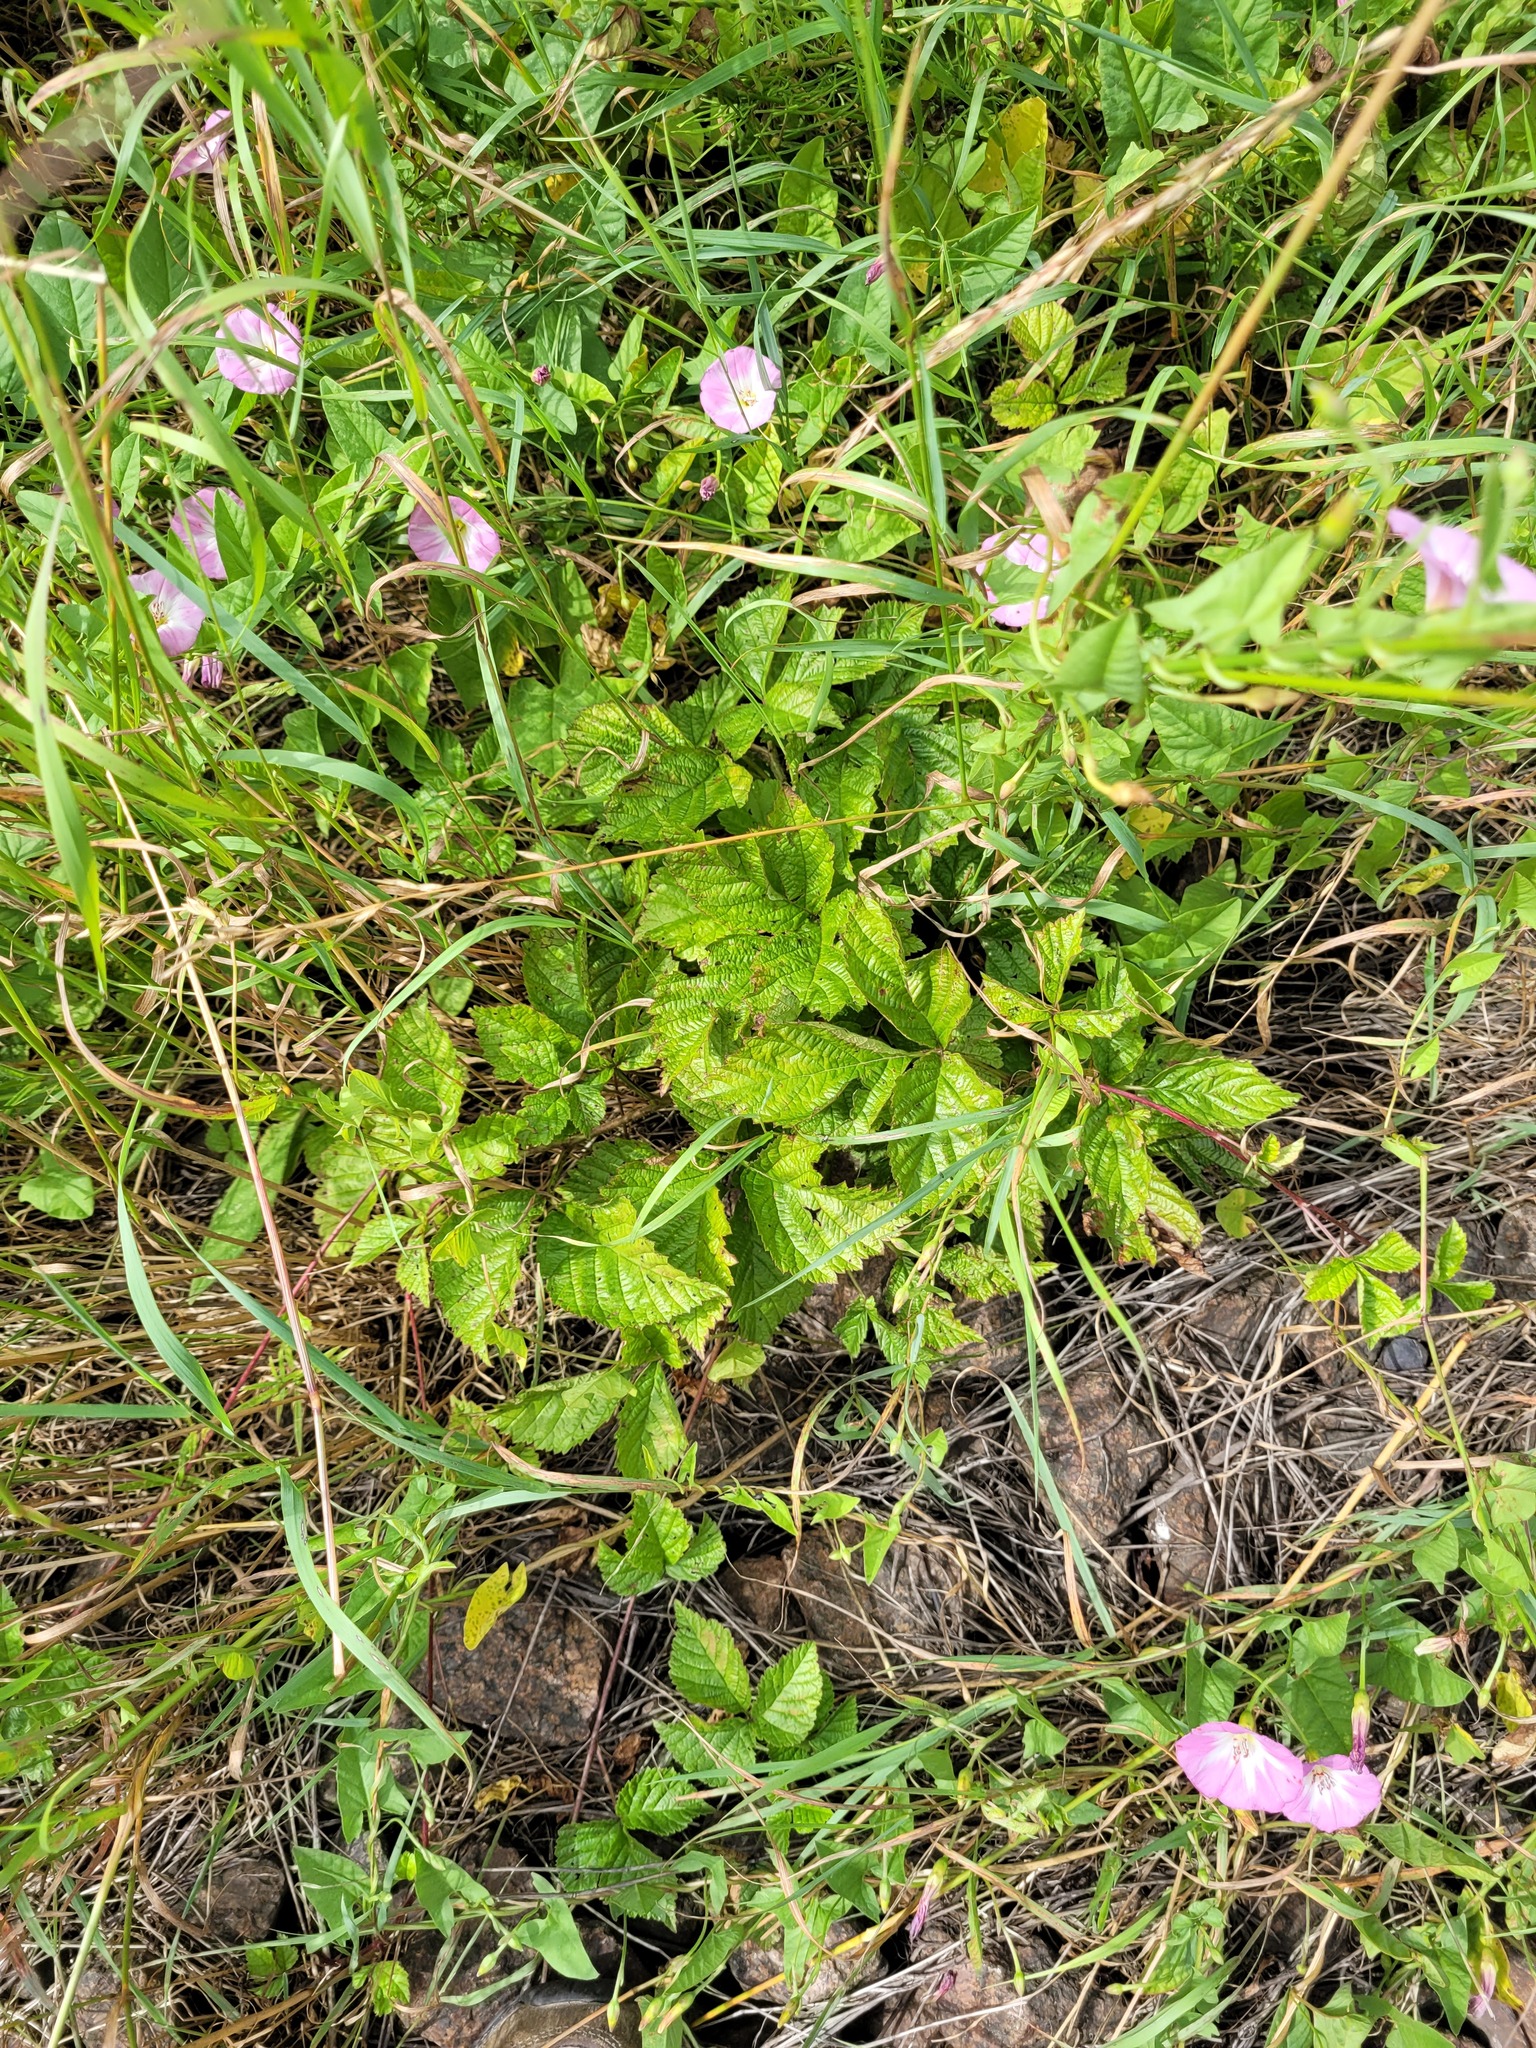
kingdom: Plantae
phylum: Tracheophyta
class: Magnoliopsida
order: Rosales
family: Rosaceae
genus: Rubus
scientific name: Rubus saxatilis
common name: Stone bramble
